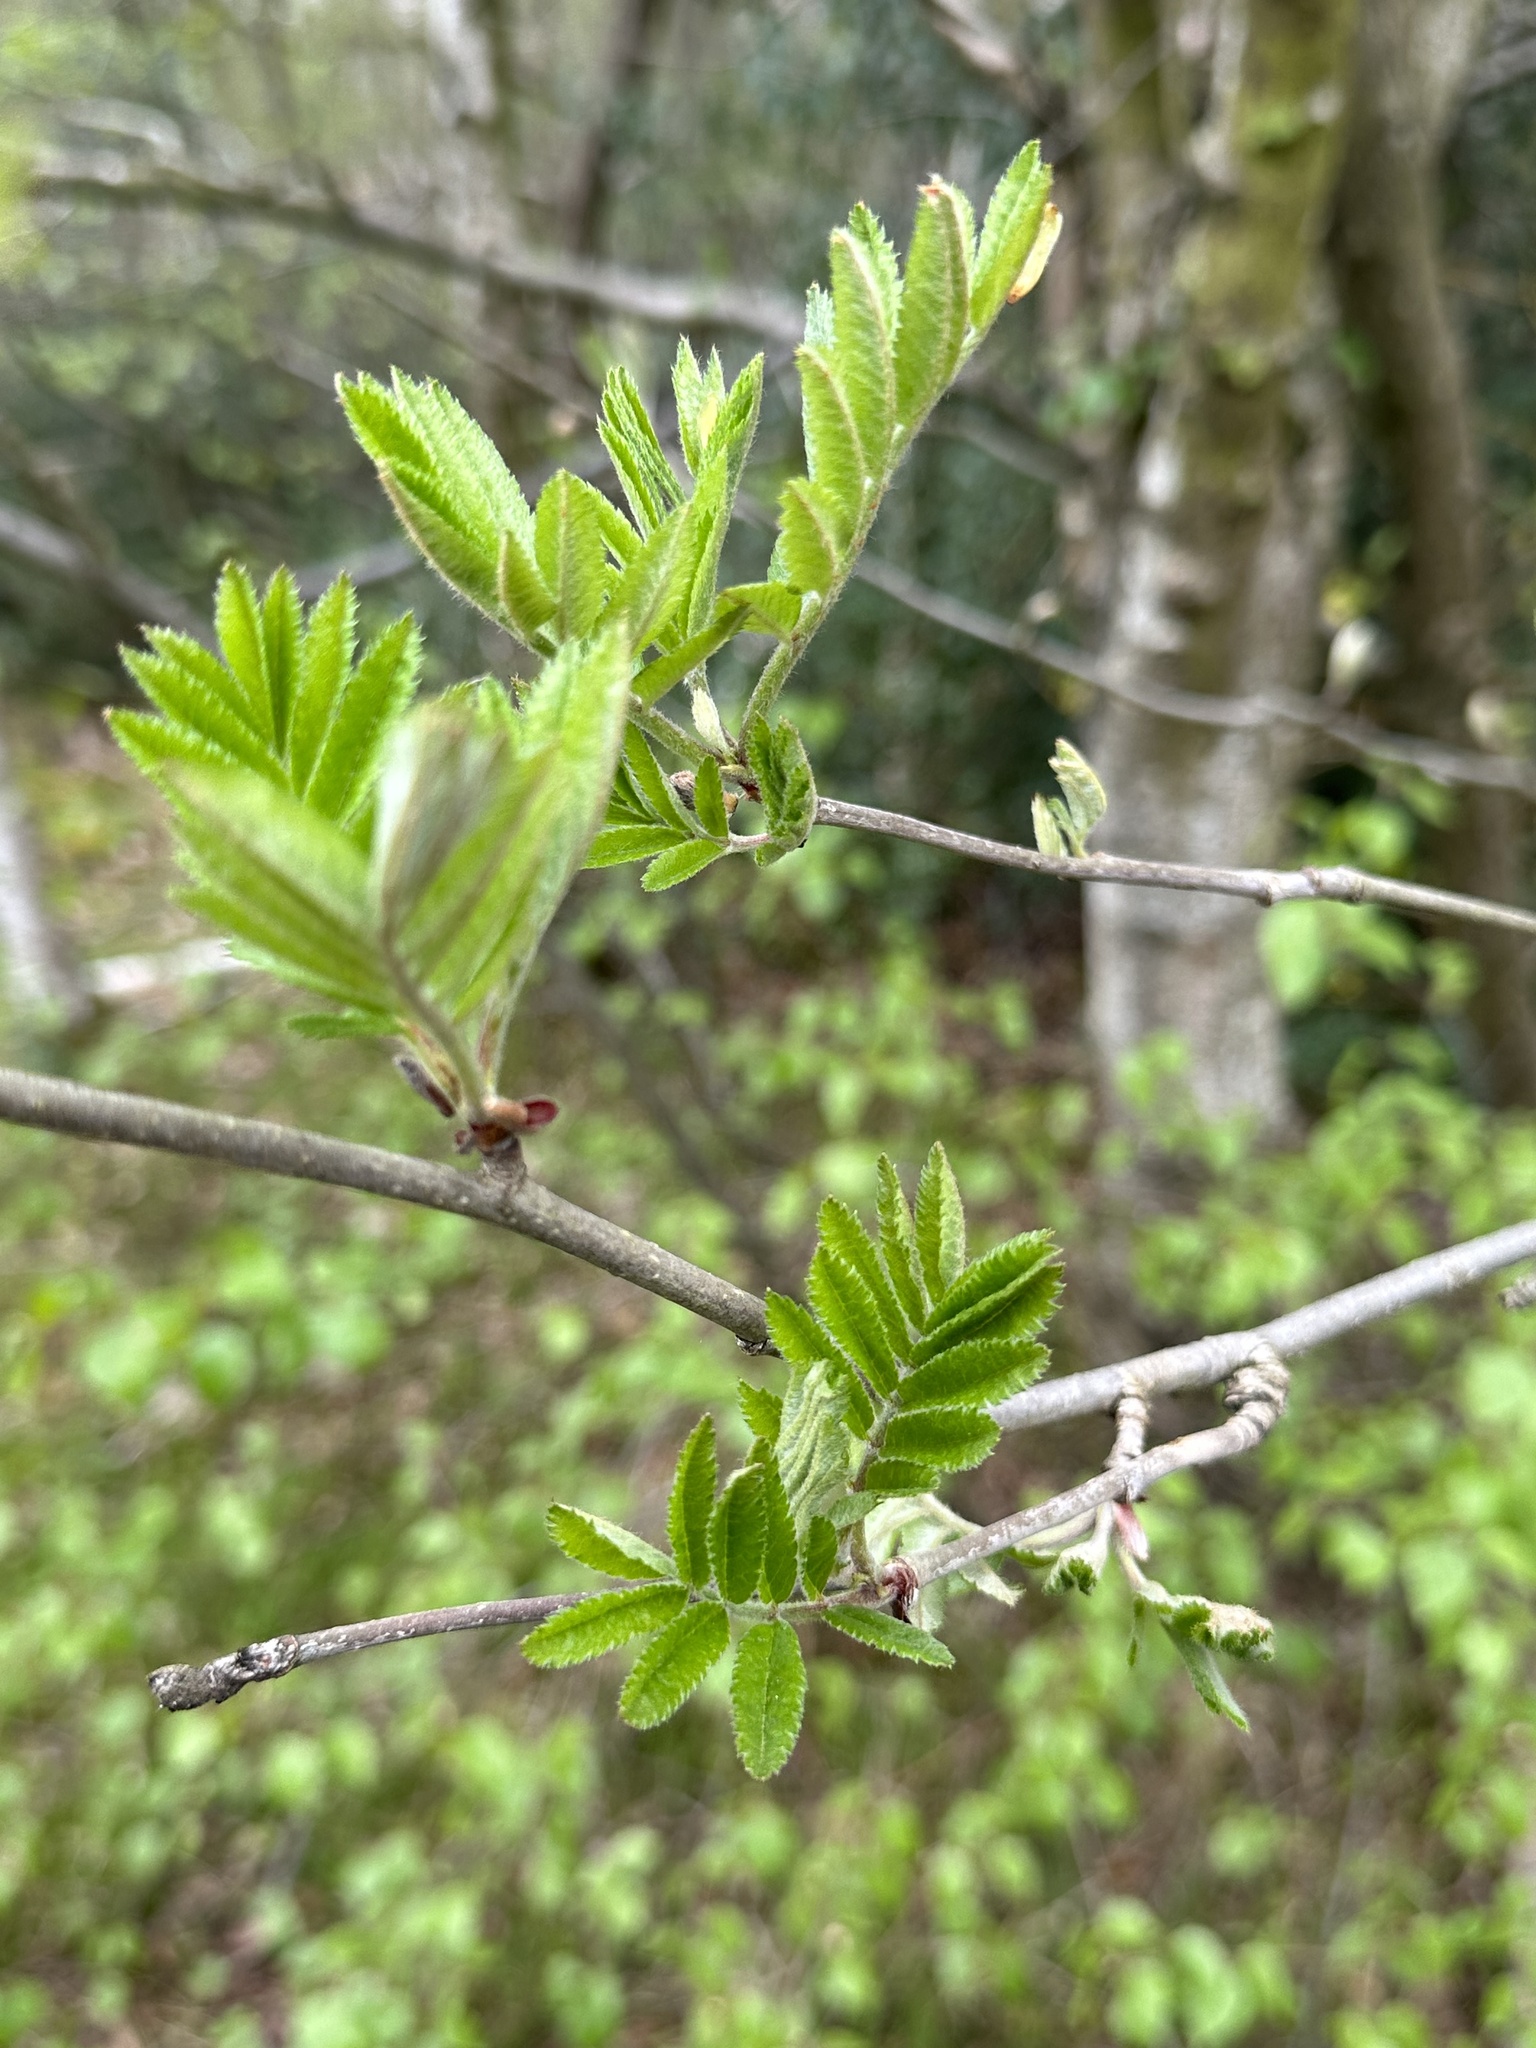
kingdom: Plantae
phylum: Tracheophyta
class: Magnoliopsida
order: Rosales
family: Rosaceae
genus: Sorbus
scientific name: Sorbus aucuparia
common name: Rowan
